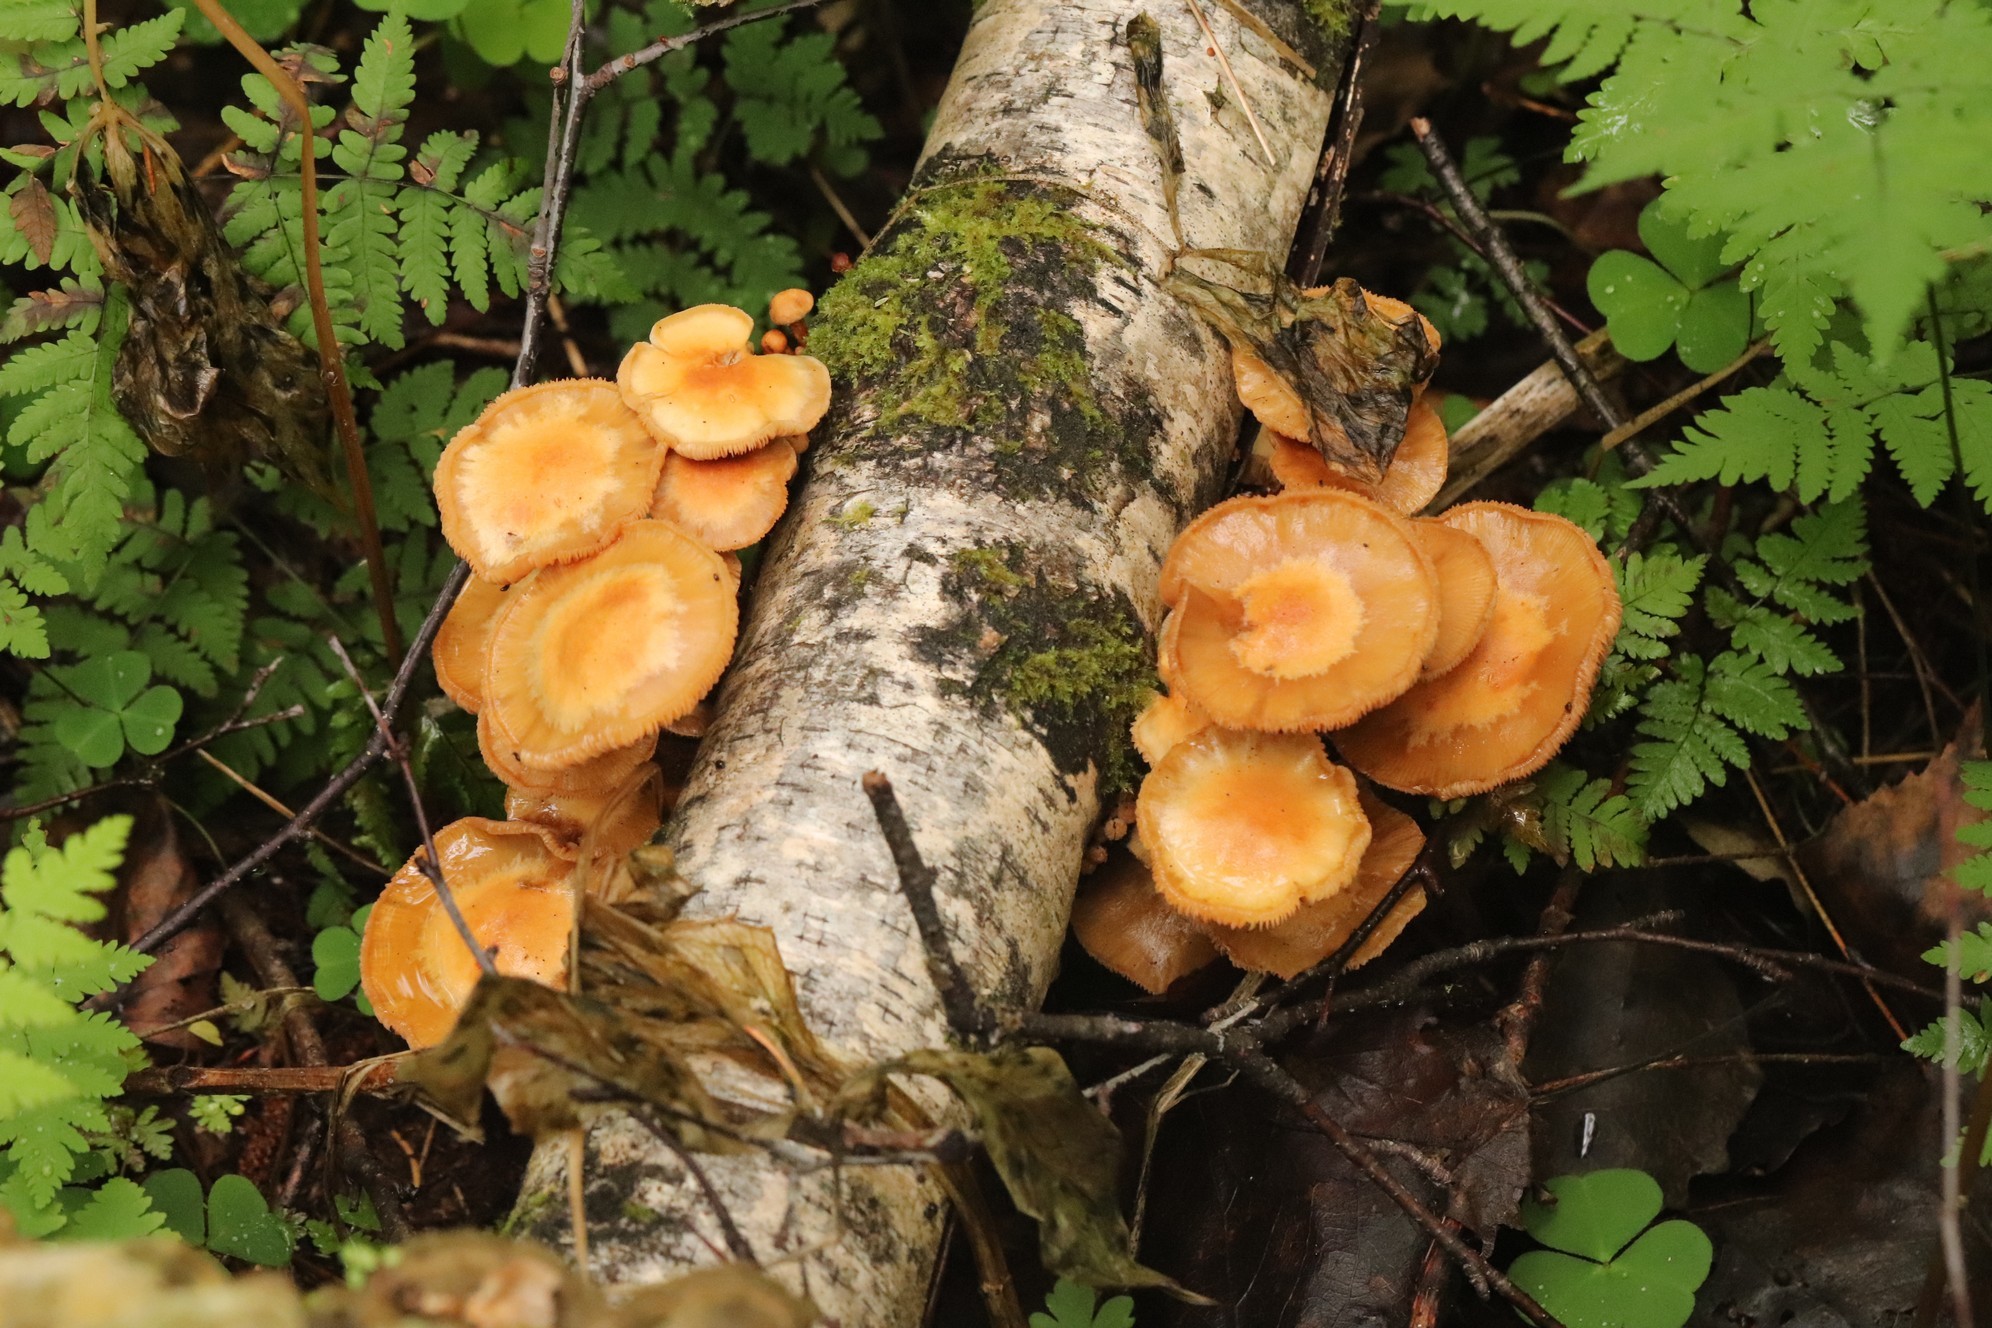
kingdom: Fungi
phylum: Basidiomycota
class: Agaricomycetes
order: Agaricales
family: Strophariaceae
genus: Kuehneromyces
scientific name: Kuehneromyces mutabilis
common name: Sheathed woodtuft
